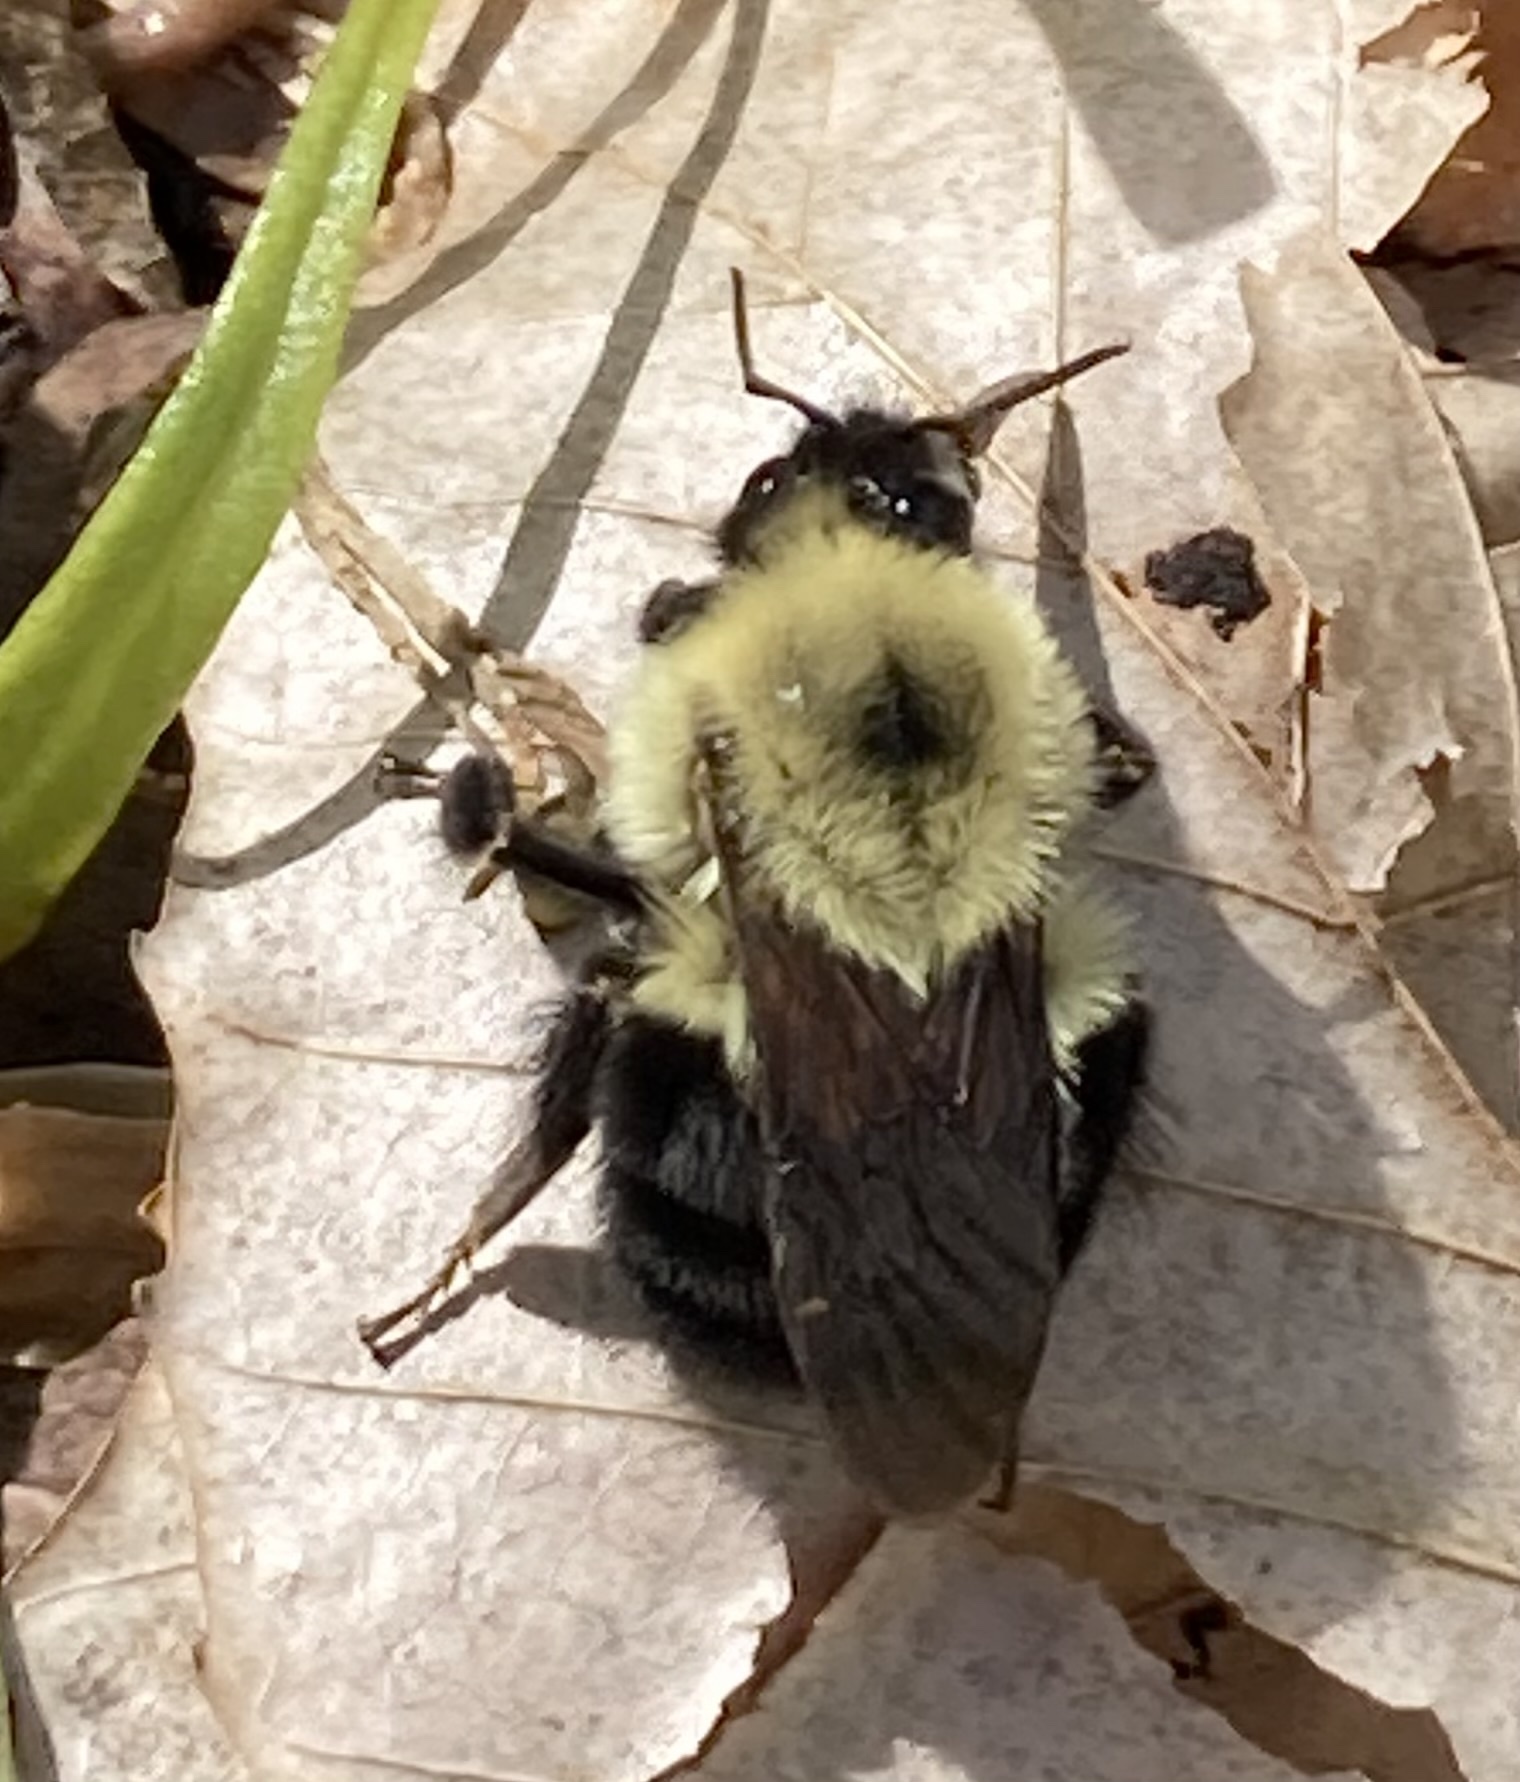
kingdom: Animalia
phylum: Arthropoda
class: Insecta
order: Hymenoptera
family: Apidae
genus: Bombus
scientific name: Bombus bimaculatus
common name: Two-spotted bumble bee
